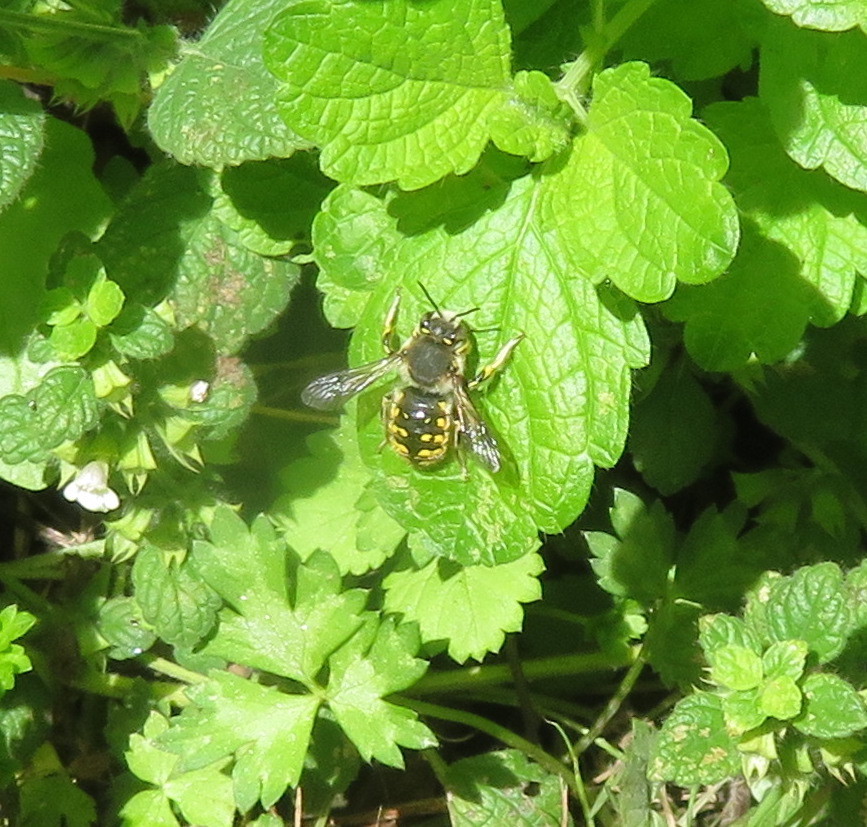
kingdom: Animalia
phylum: Arthropoda
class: Insecta
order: Hymenoptera
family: Megachilidae
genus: Anthidium
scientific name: Anthidium manicatum
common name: Wool carder bee
